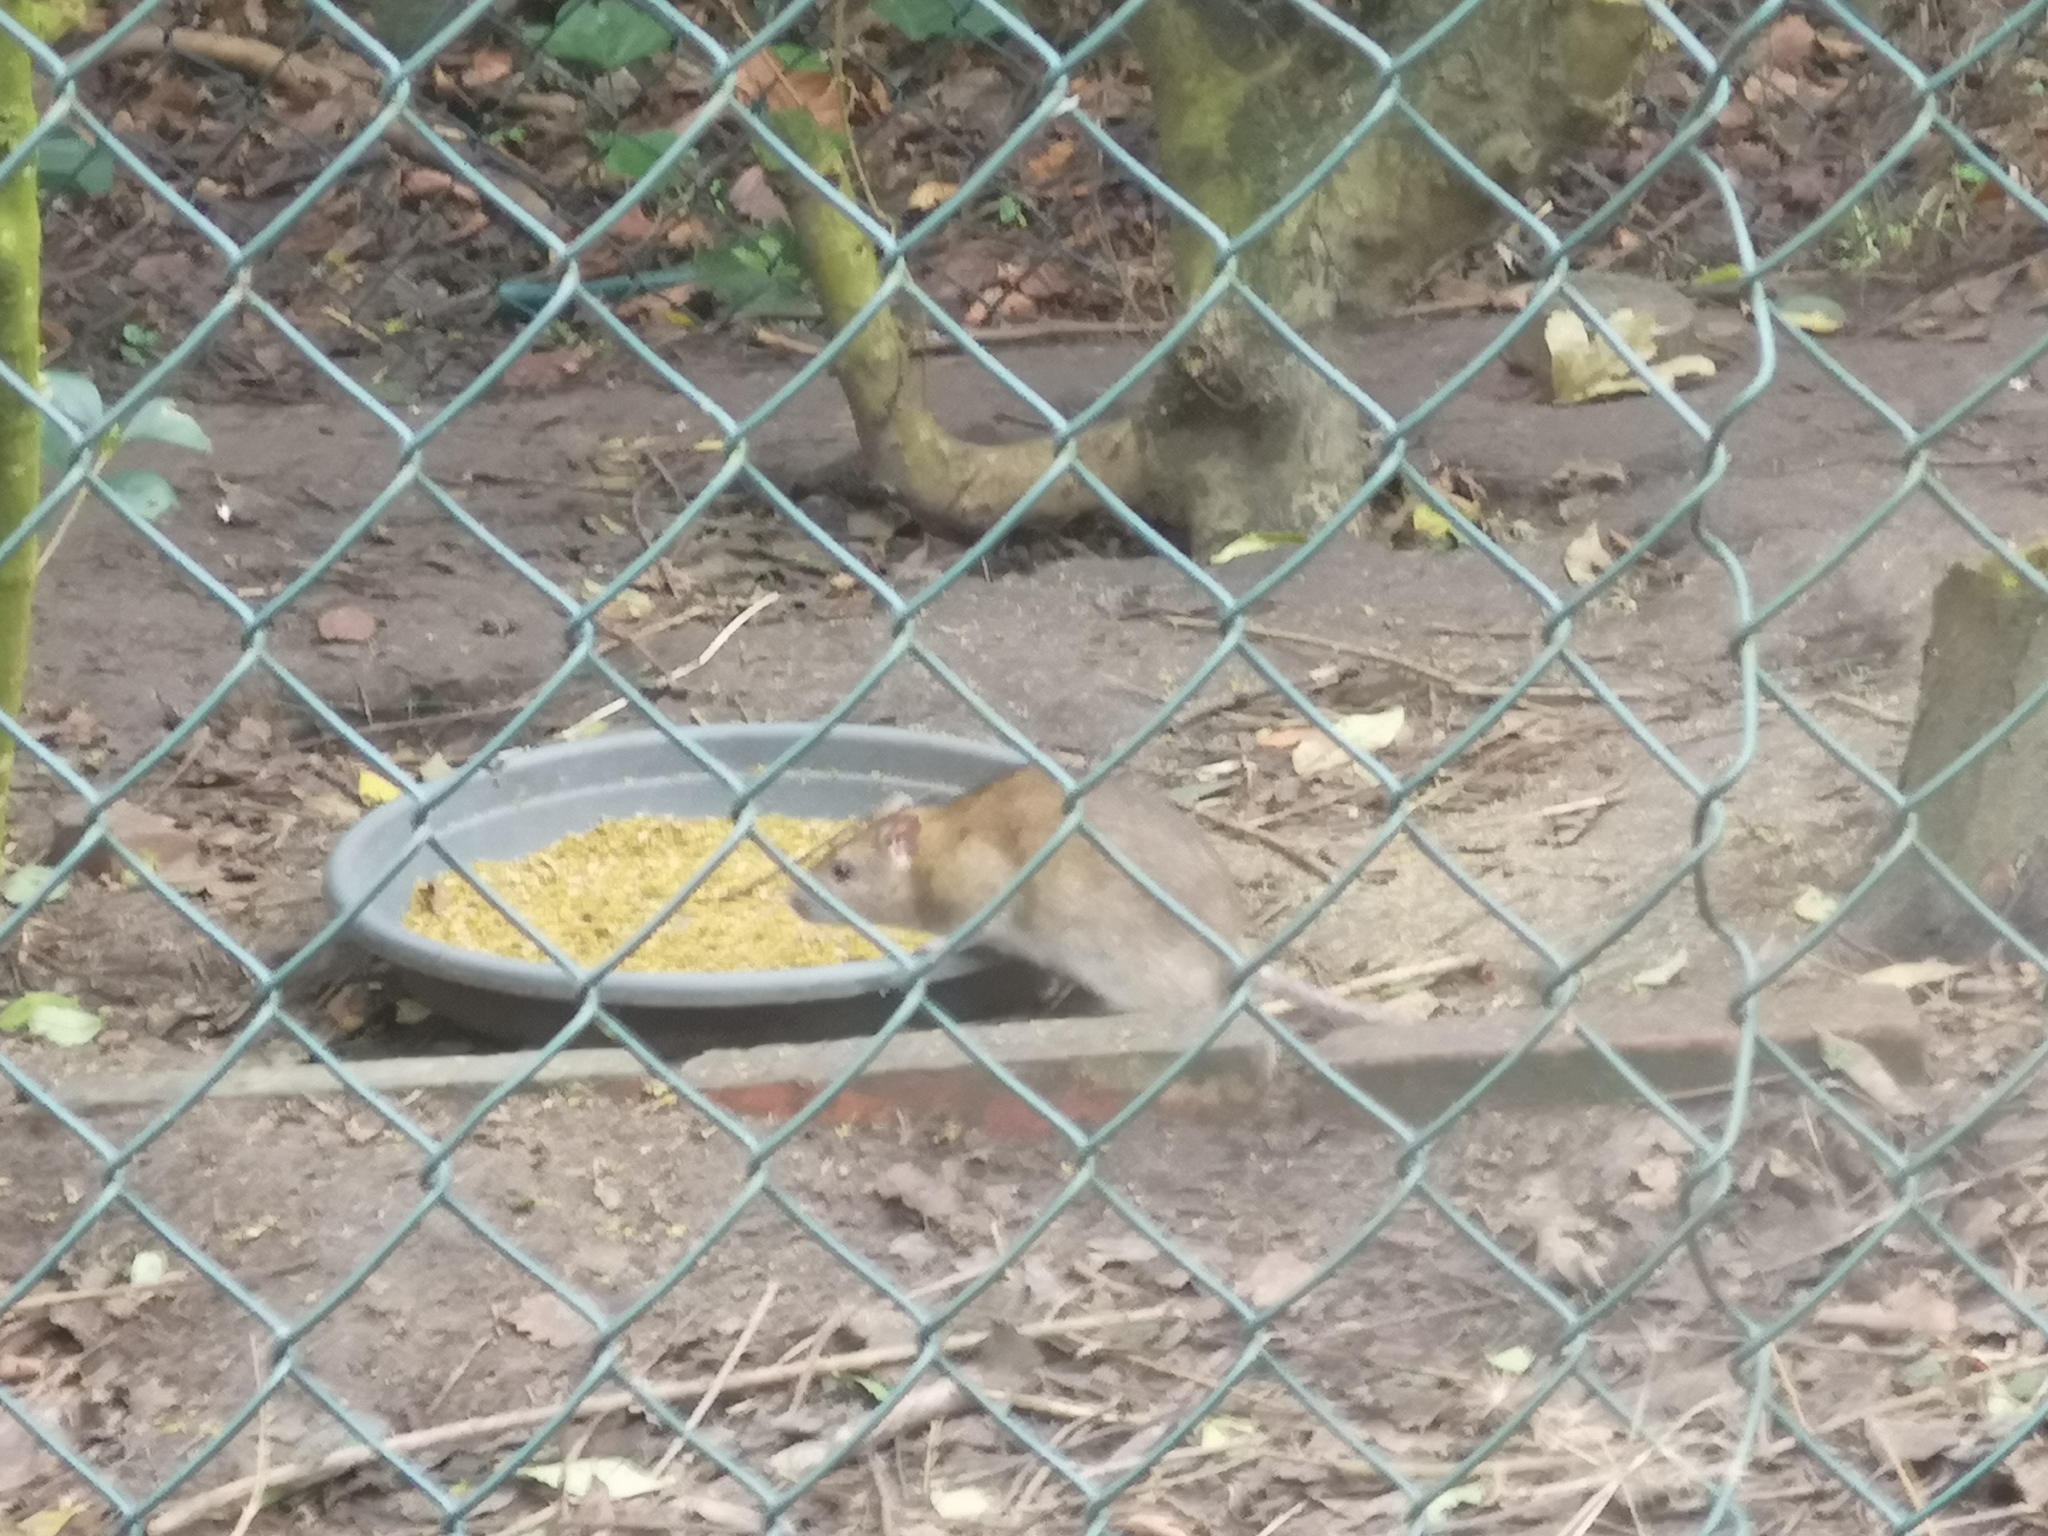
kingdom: Animalia
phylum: Chordata
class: Mammalia
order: Rodentia
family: Muridae
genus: Rattus
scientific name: Rattus norvegicus
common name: Brown rat
